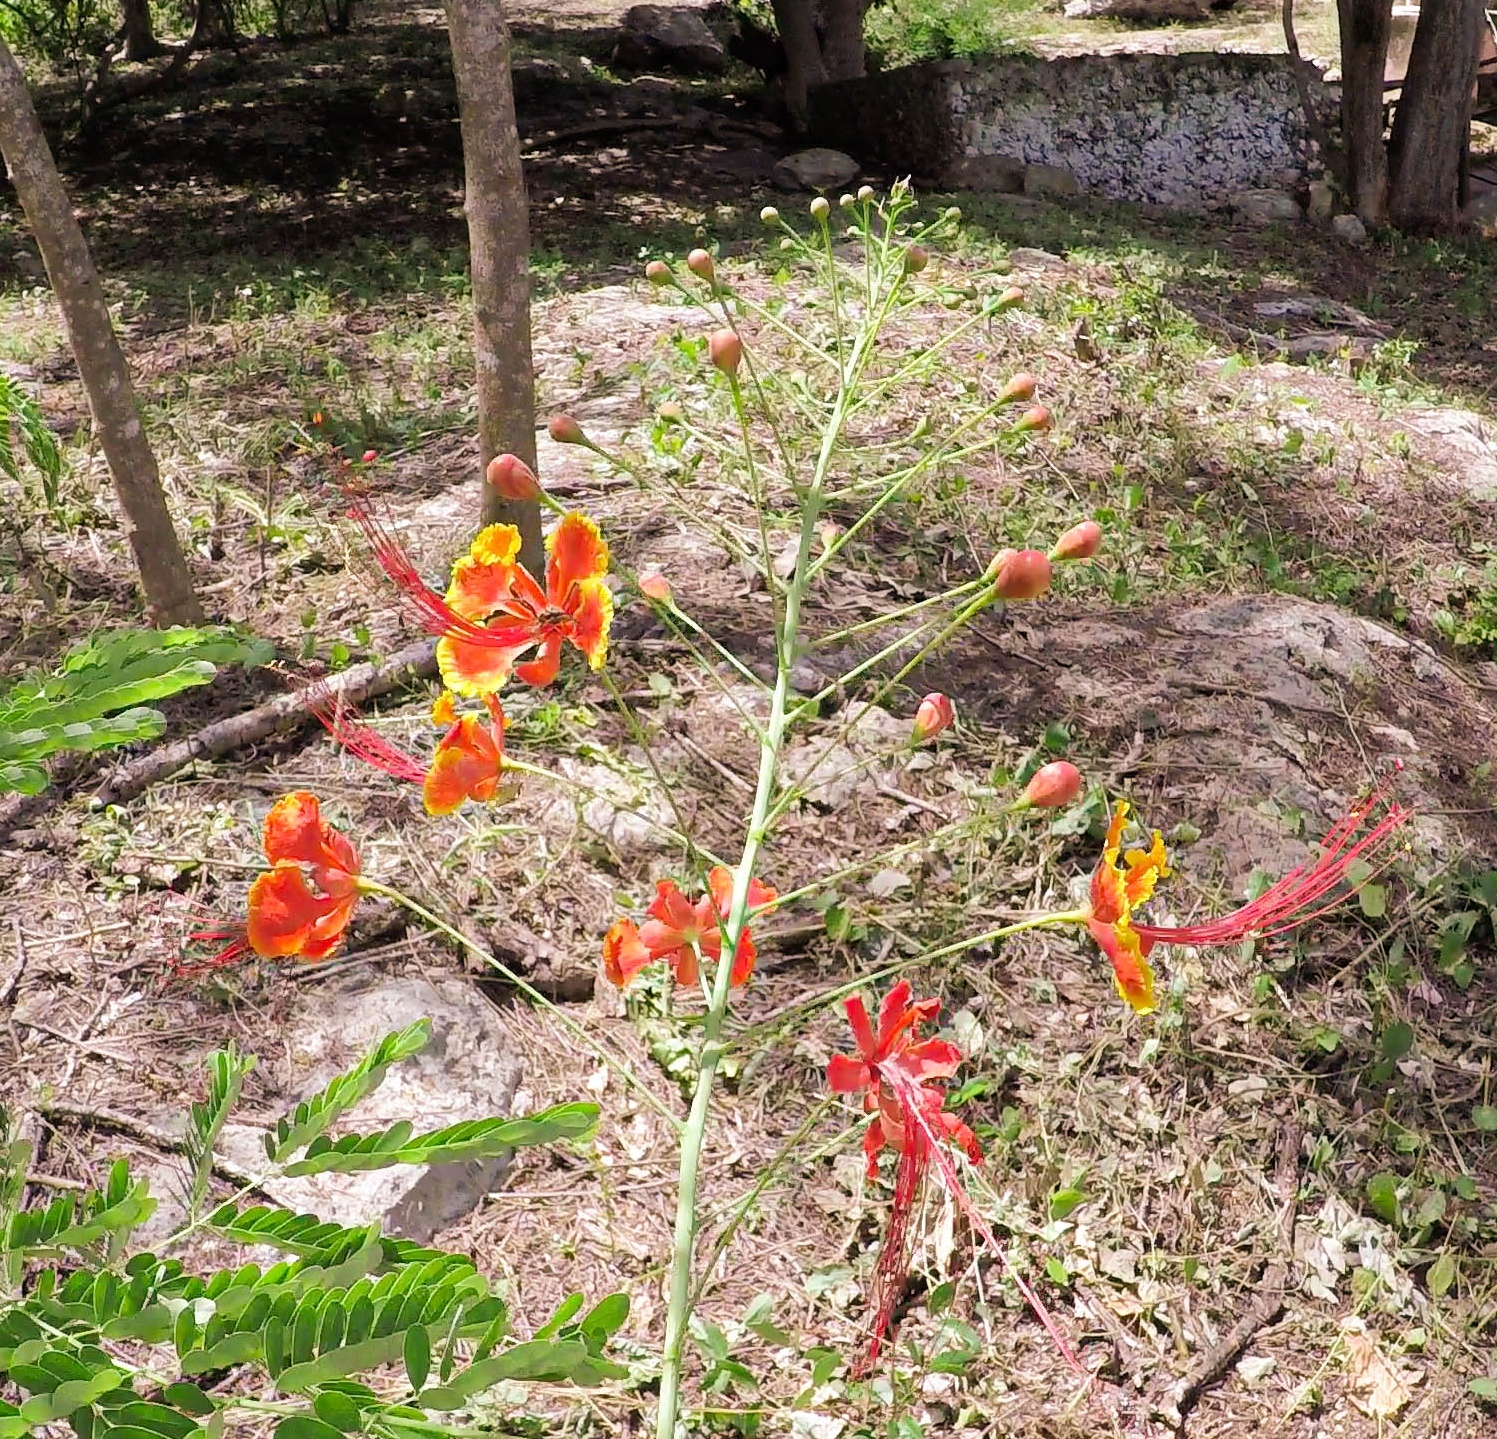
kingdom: Plantae
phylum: Tracheophyta
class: Magnoliopsida
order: Fabales
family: Fabaceae
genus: Caesalpinia
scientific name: Caesalpinia pulcherrima
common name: Pride-of-barbados
